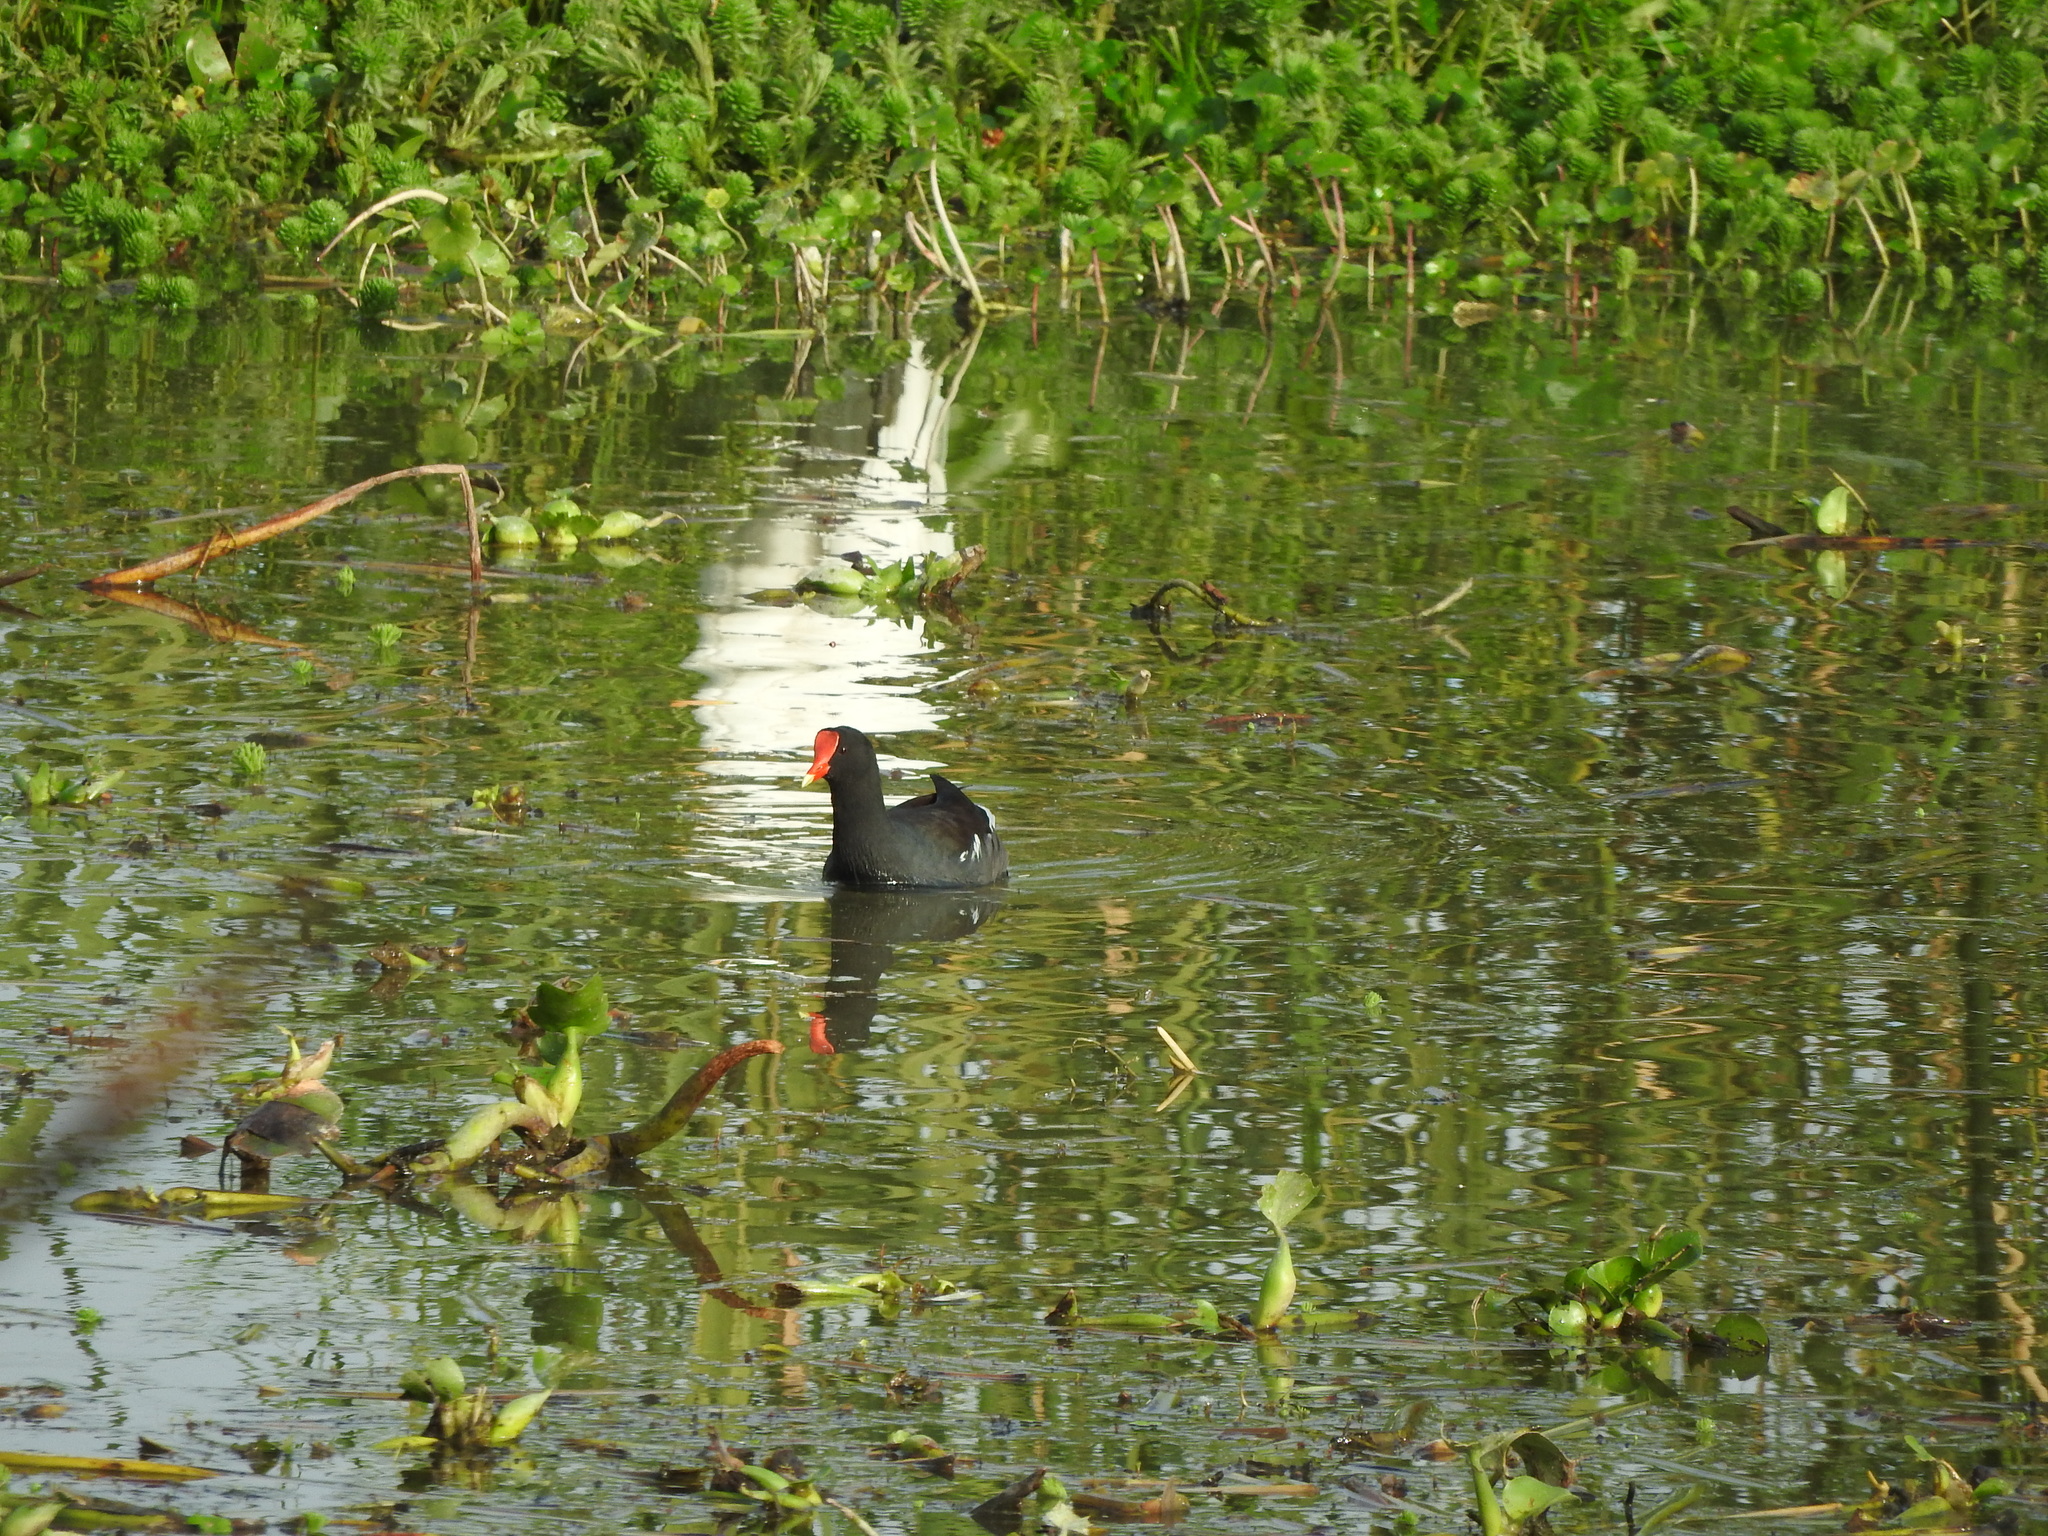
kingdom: Animalia
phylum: Chordata
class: Aves
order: Gruiformes
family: Rallidae
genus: Gallinula
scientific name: Gallinula chloropus
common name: Common moorhen
